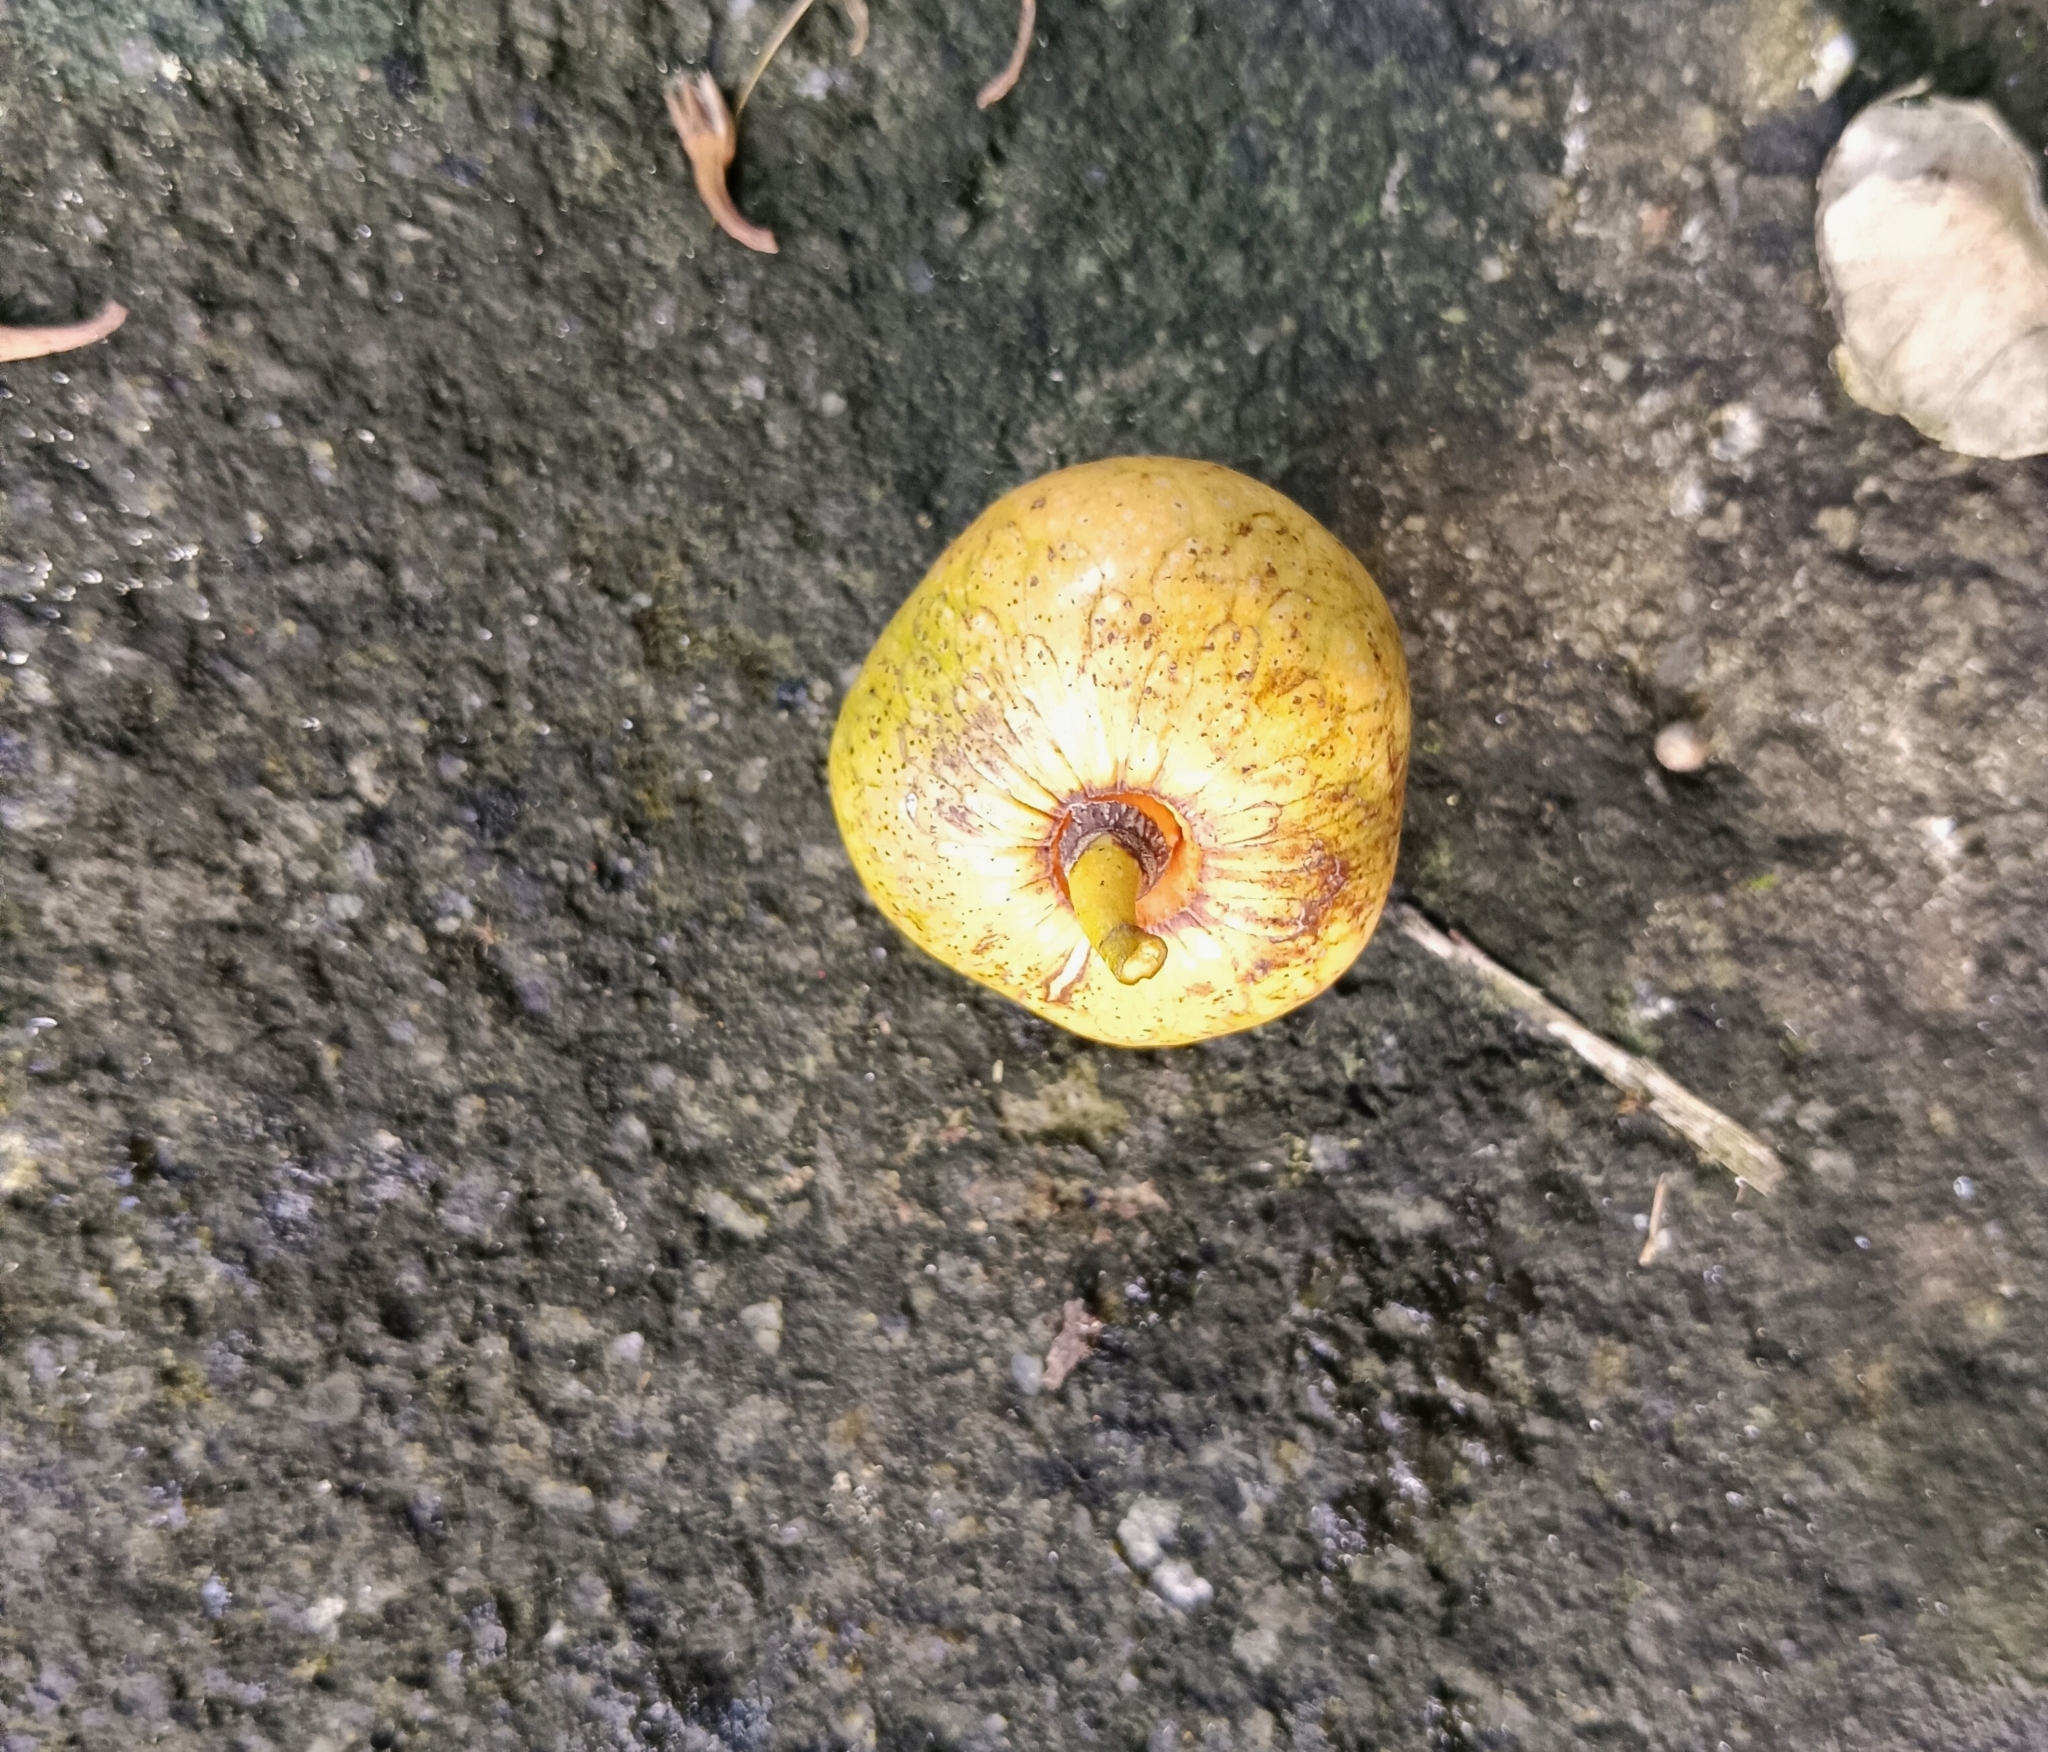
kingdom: Plantae
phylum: Tracheophyta
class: Magnoliopsida
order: Magnoliales
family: Annonaceae
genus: Annona
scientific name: Annona glabra
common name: Monkey apple
